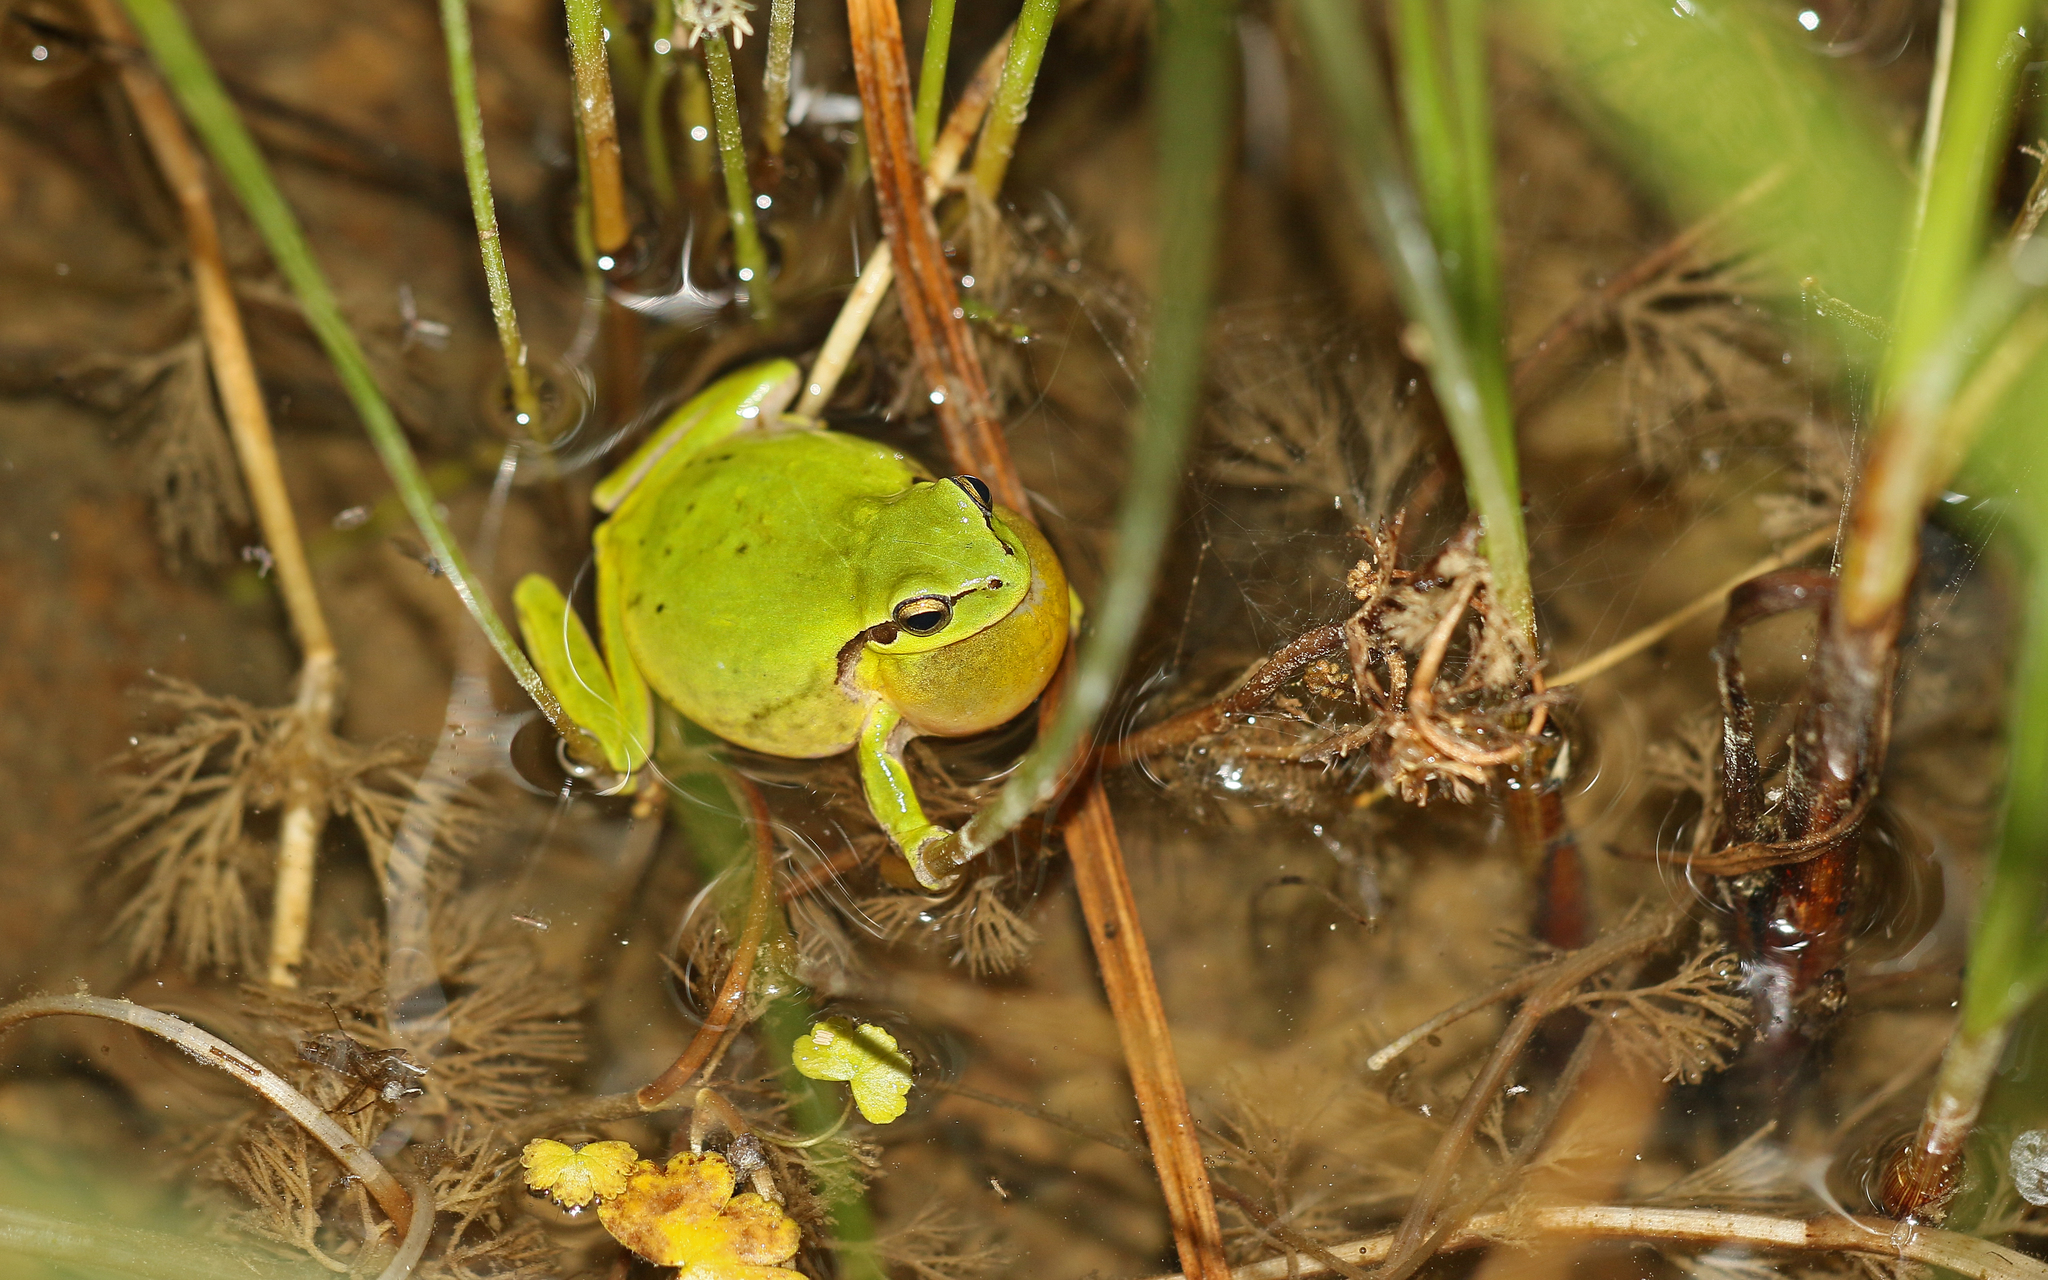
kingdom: Animalia
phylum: Chordata
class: Amphibia
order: Anura
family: Hylidae
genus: Hyla
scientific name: Hyla meridionalis
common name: Stripeless tree frog
